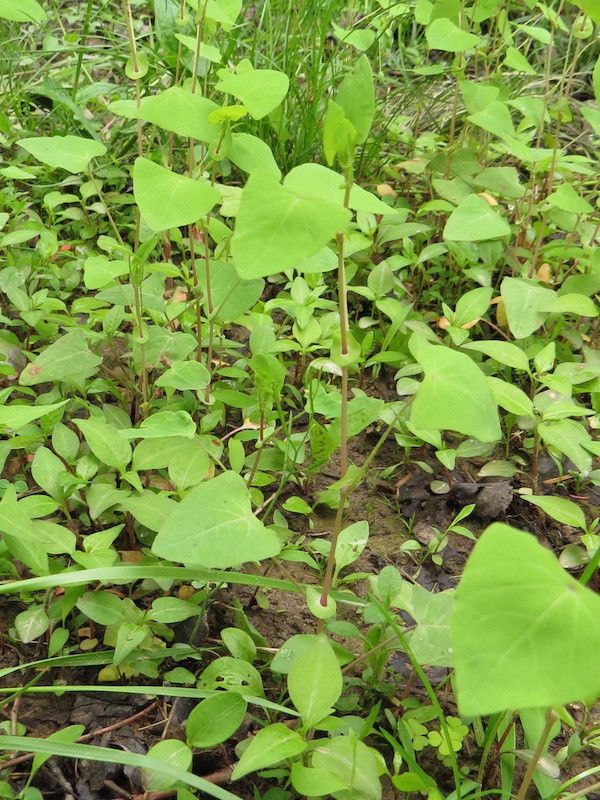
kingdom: Plantae
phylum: Tracheophyta
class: Magnoliopsida
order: Caryophyllales
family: Polygonaceae
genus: Persicaria
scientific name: Persicaria perfoliata
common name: Asiatic tearthumb
